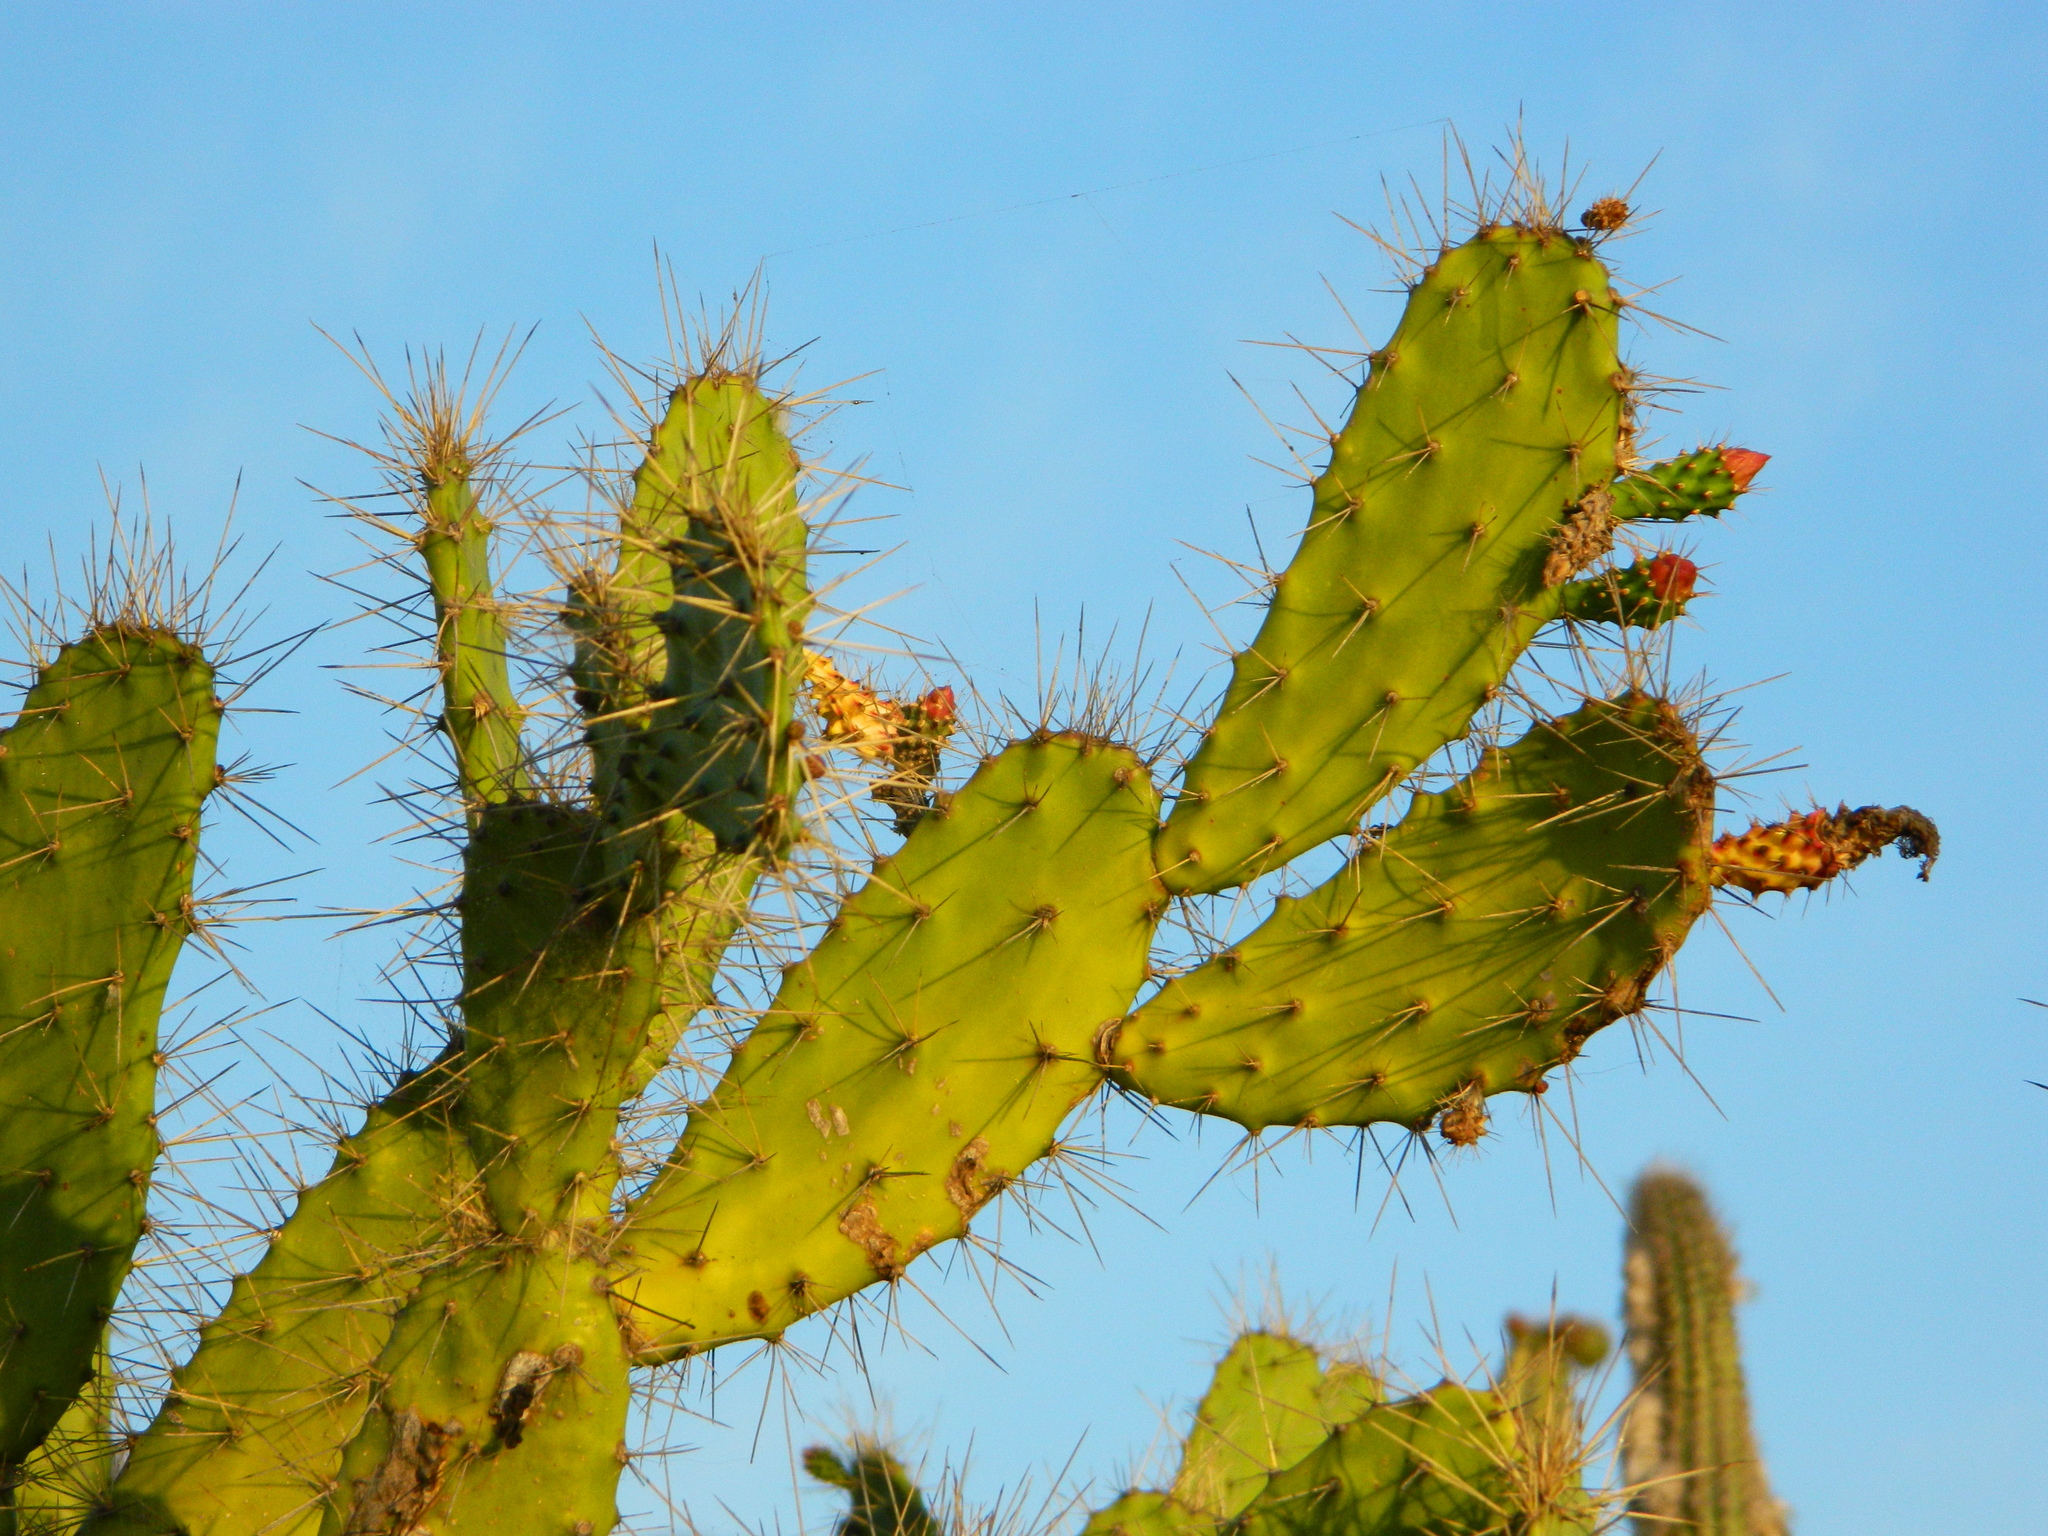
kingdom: Plantae
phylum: Tracheophyta
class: Magnoliopsida
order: Caryophyllales
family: Cactaceae
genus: Opuntia
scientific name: Opuntia hyptiacantha
